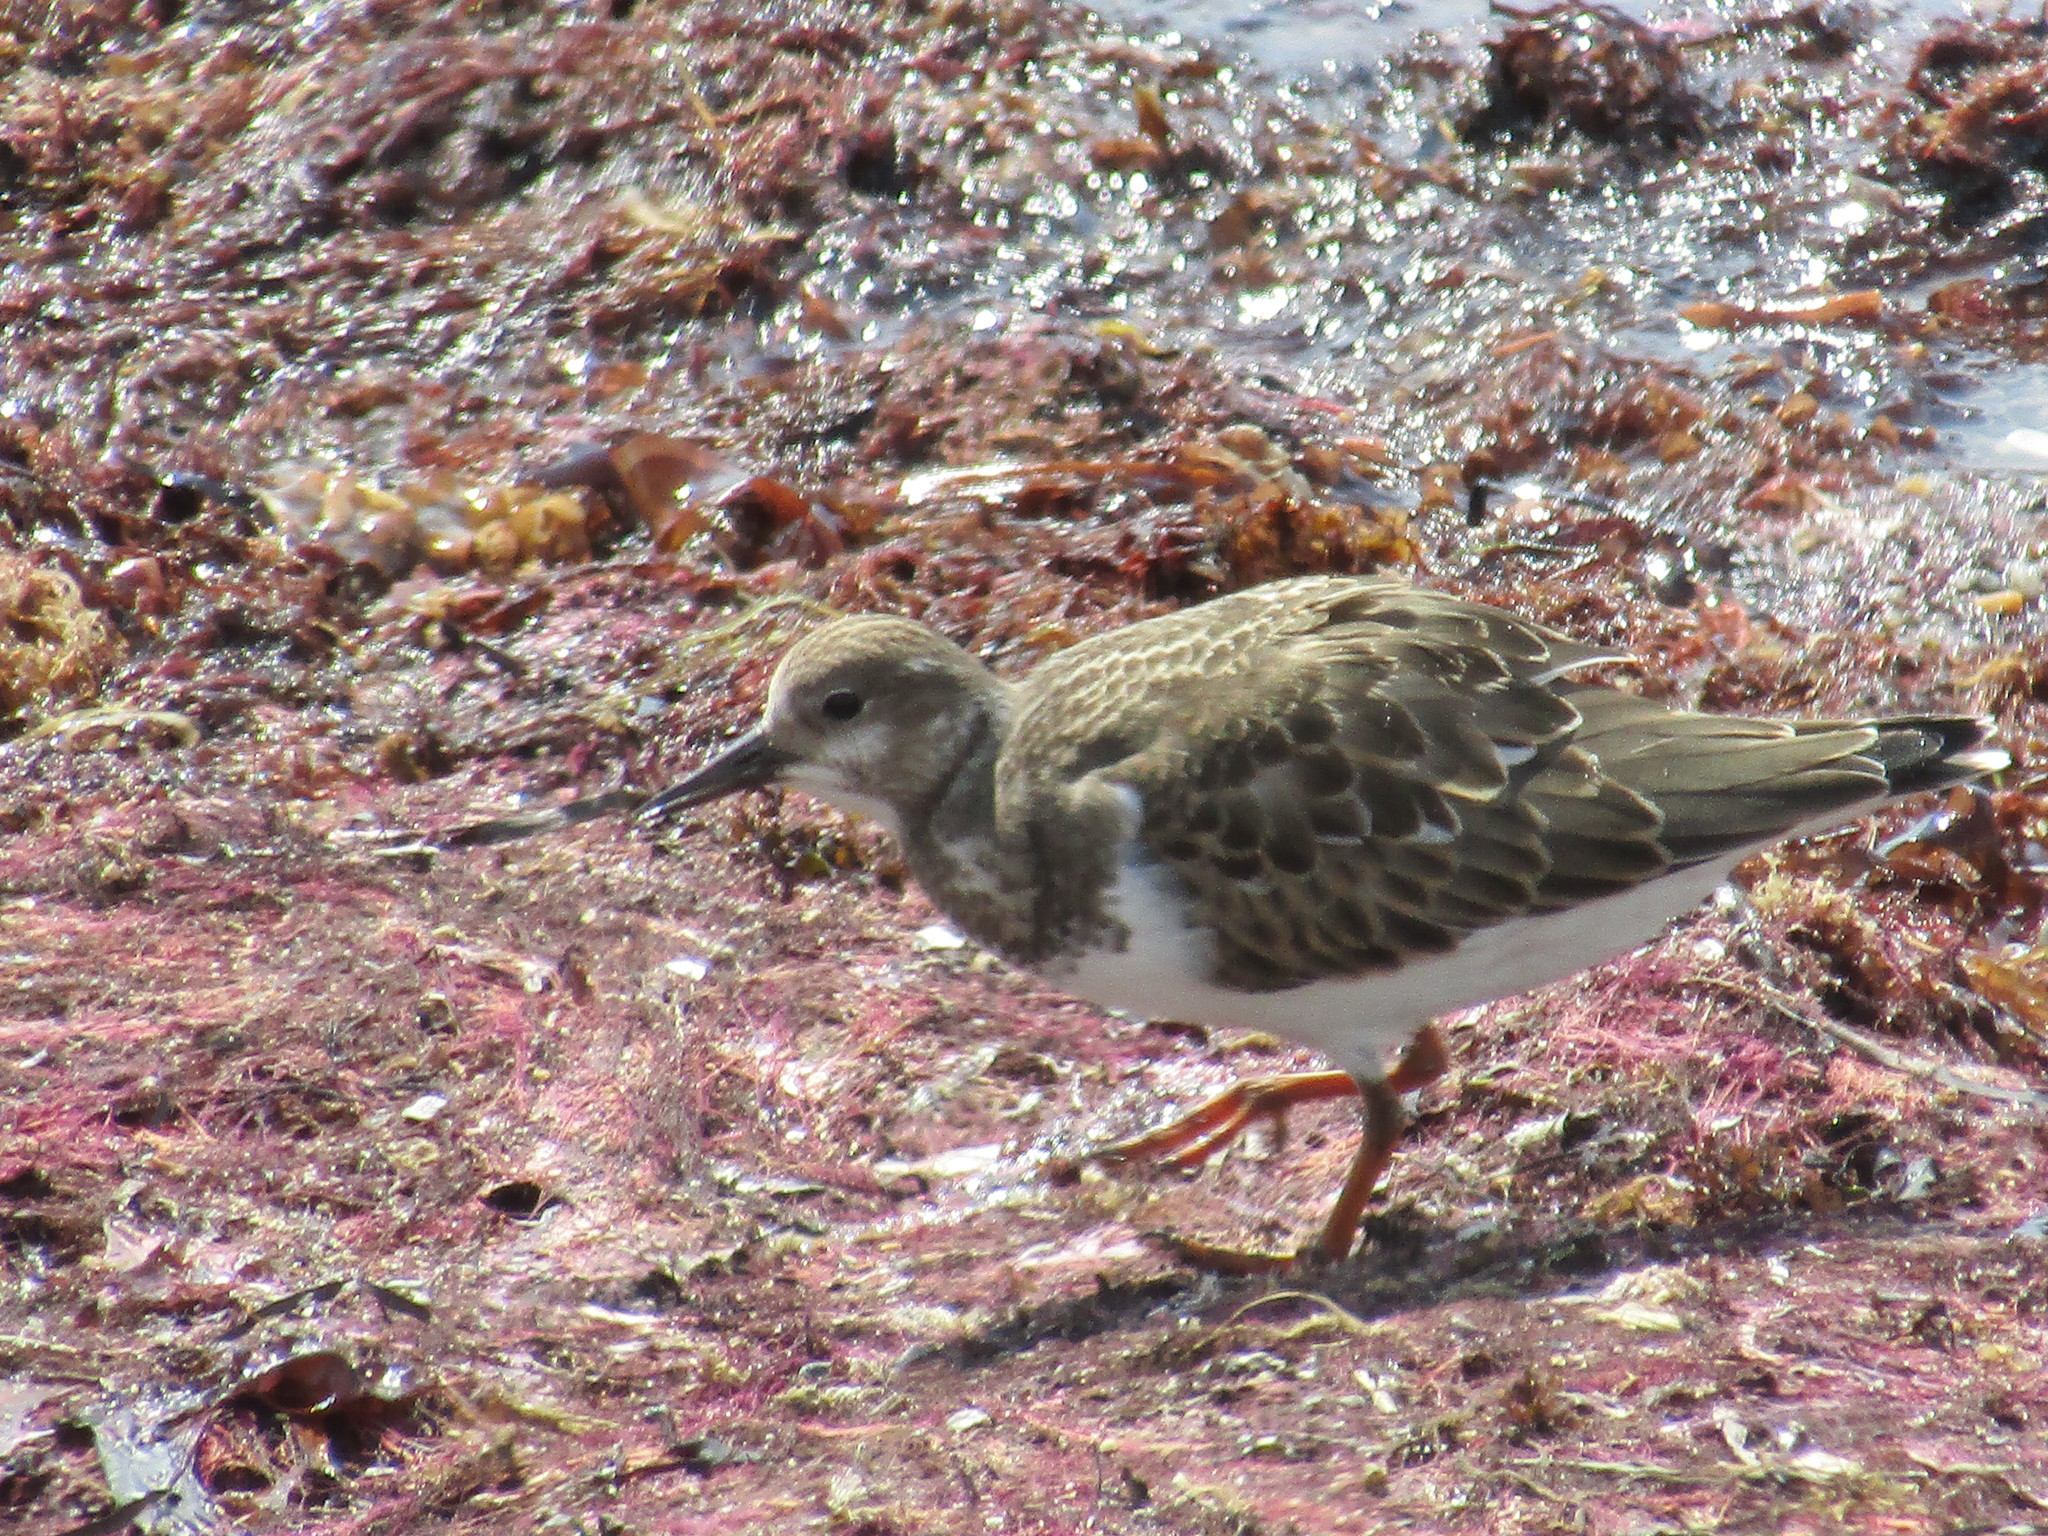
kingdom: Animalia
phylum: Chordata
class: Aves
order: Charadriiformes
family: Scolopacidae
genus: Arenaria
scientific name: Arenaria interpres
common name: Ruddy turnstone
